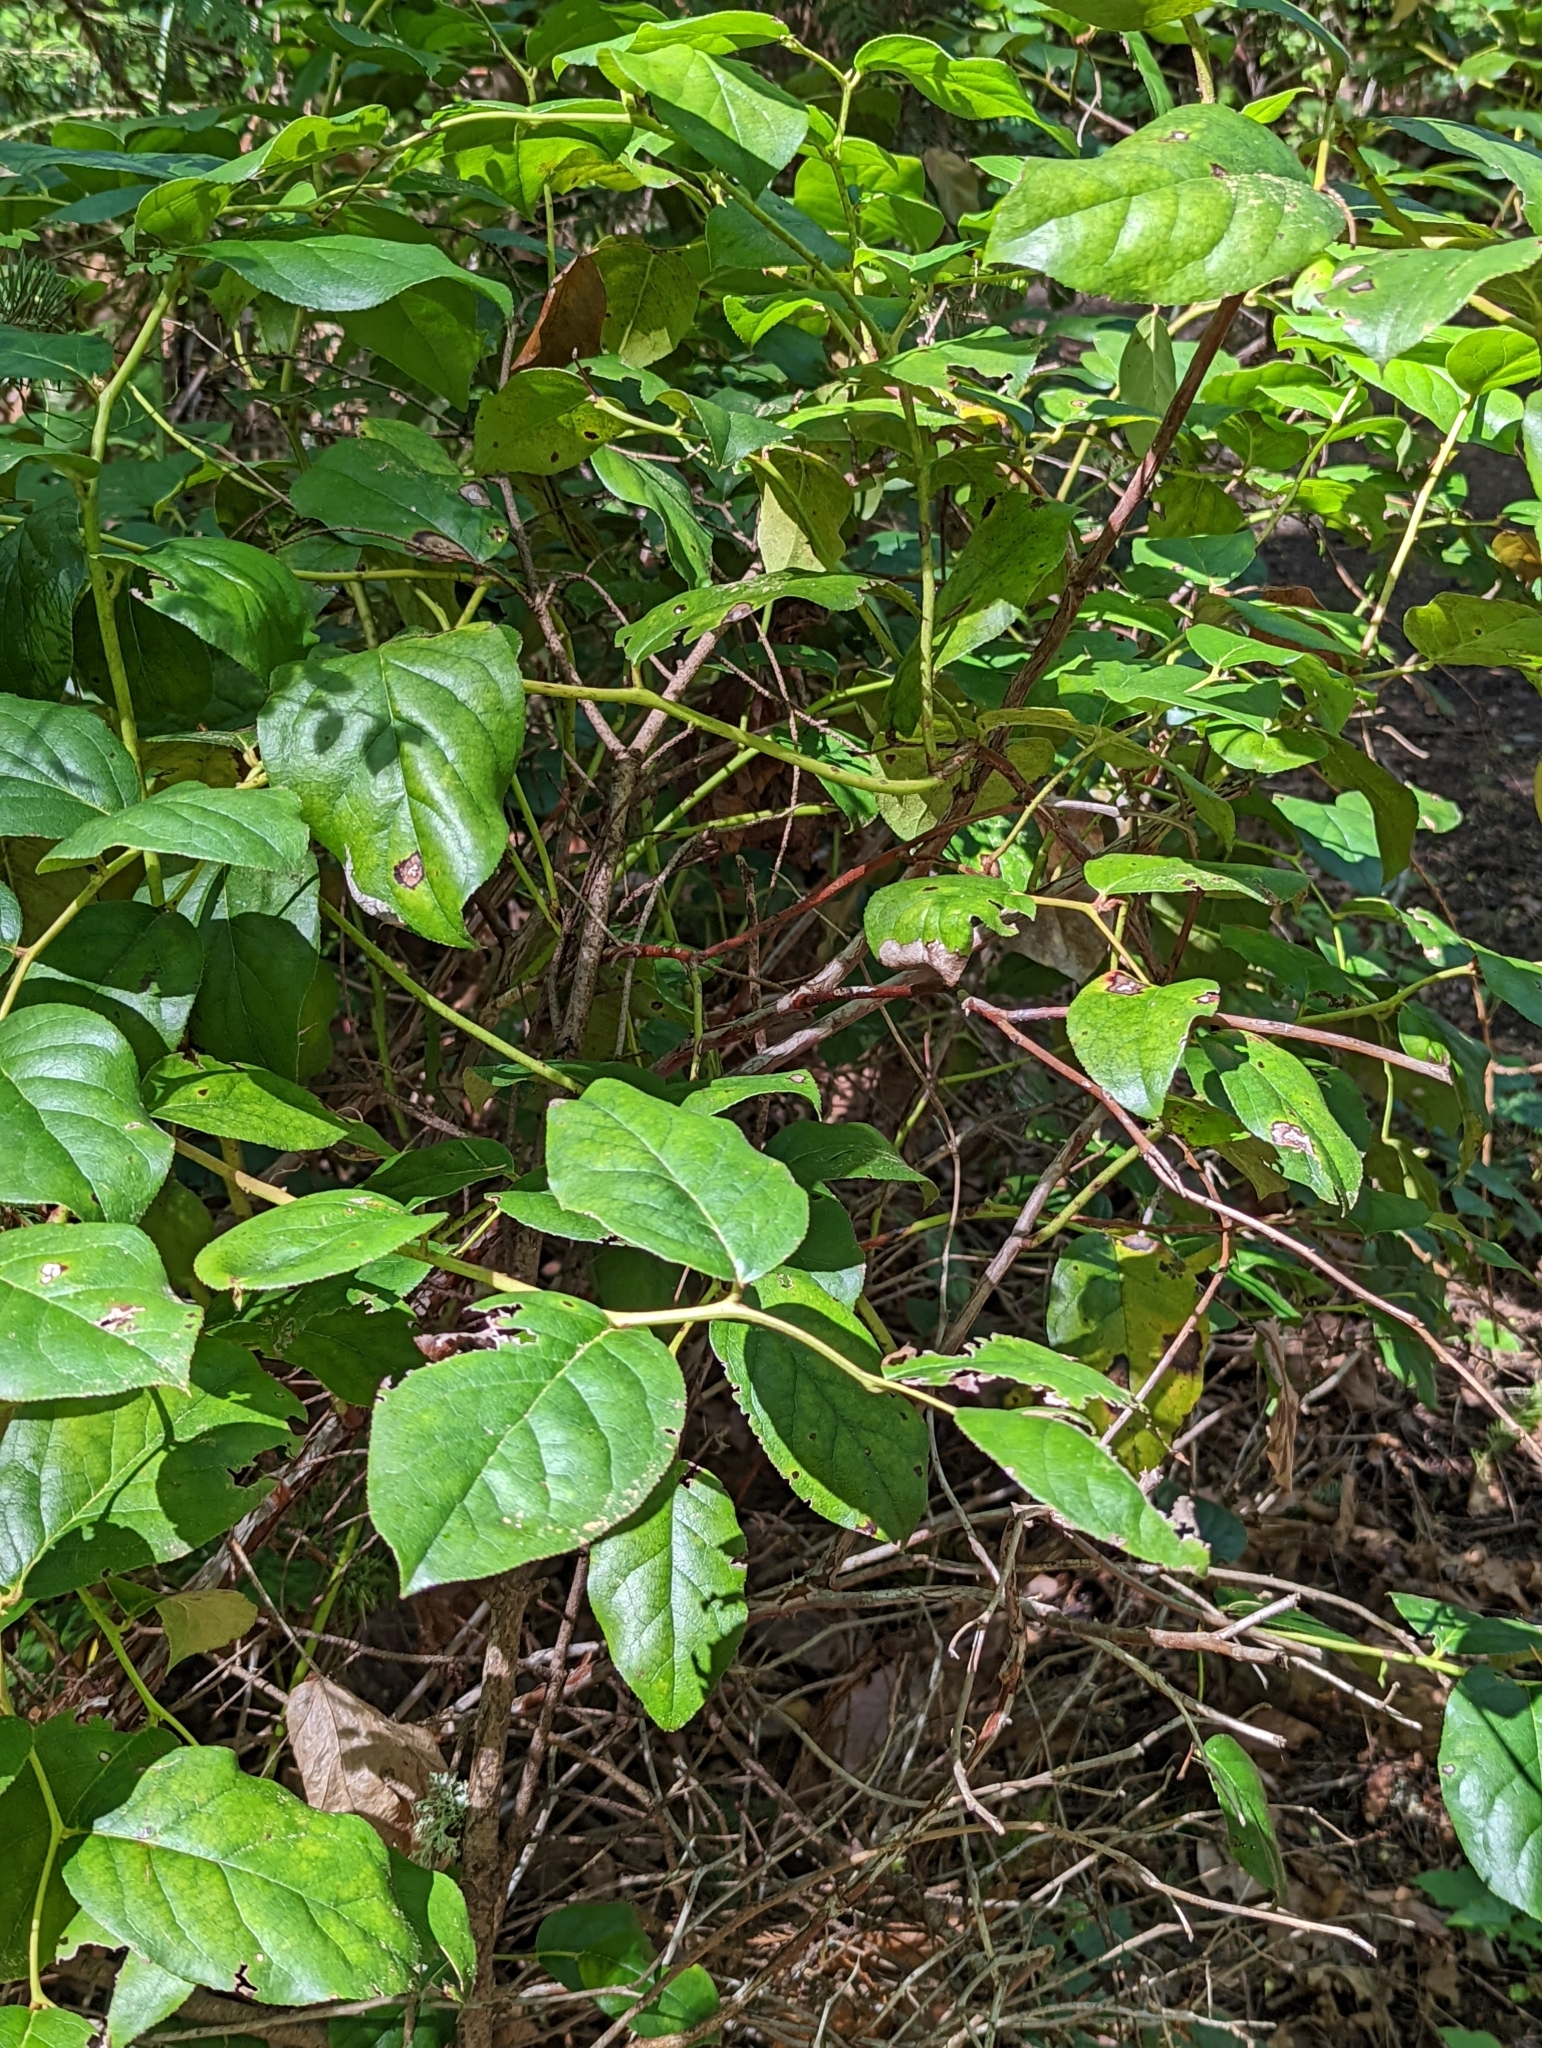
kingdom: Plantae
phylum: Tracheophyta
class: Magnoliopsida
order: Ericales
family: Ericaceae
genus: Gaultheria
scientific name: Gaultheria shallon
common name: Shallon
